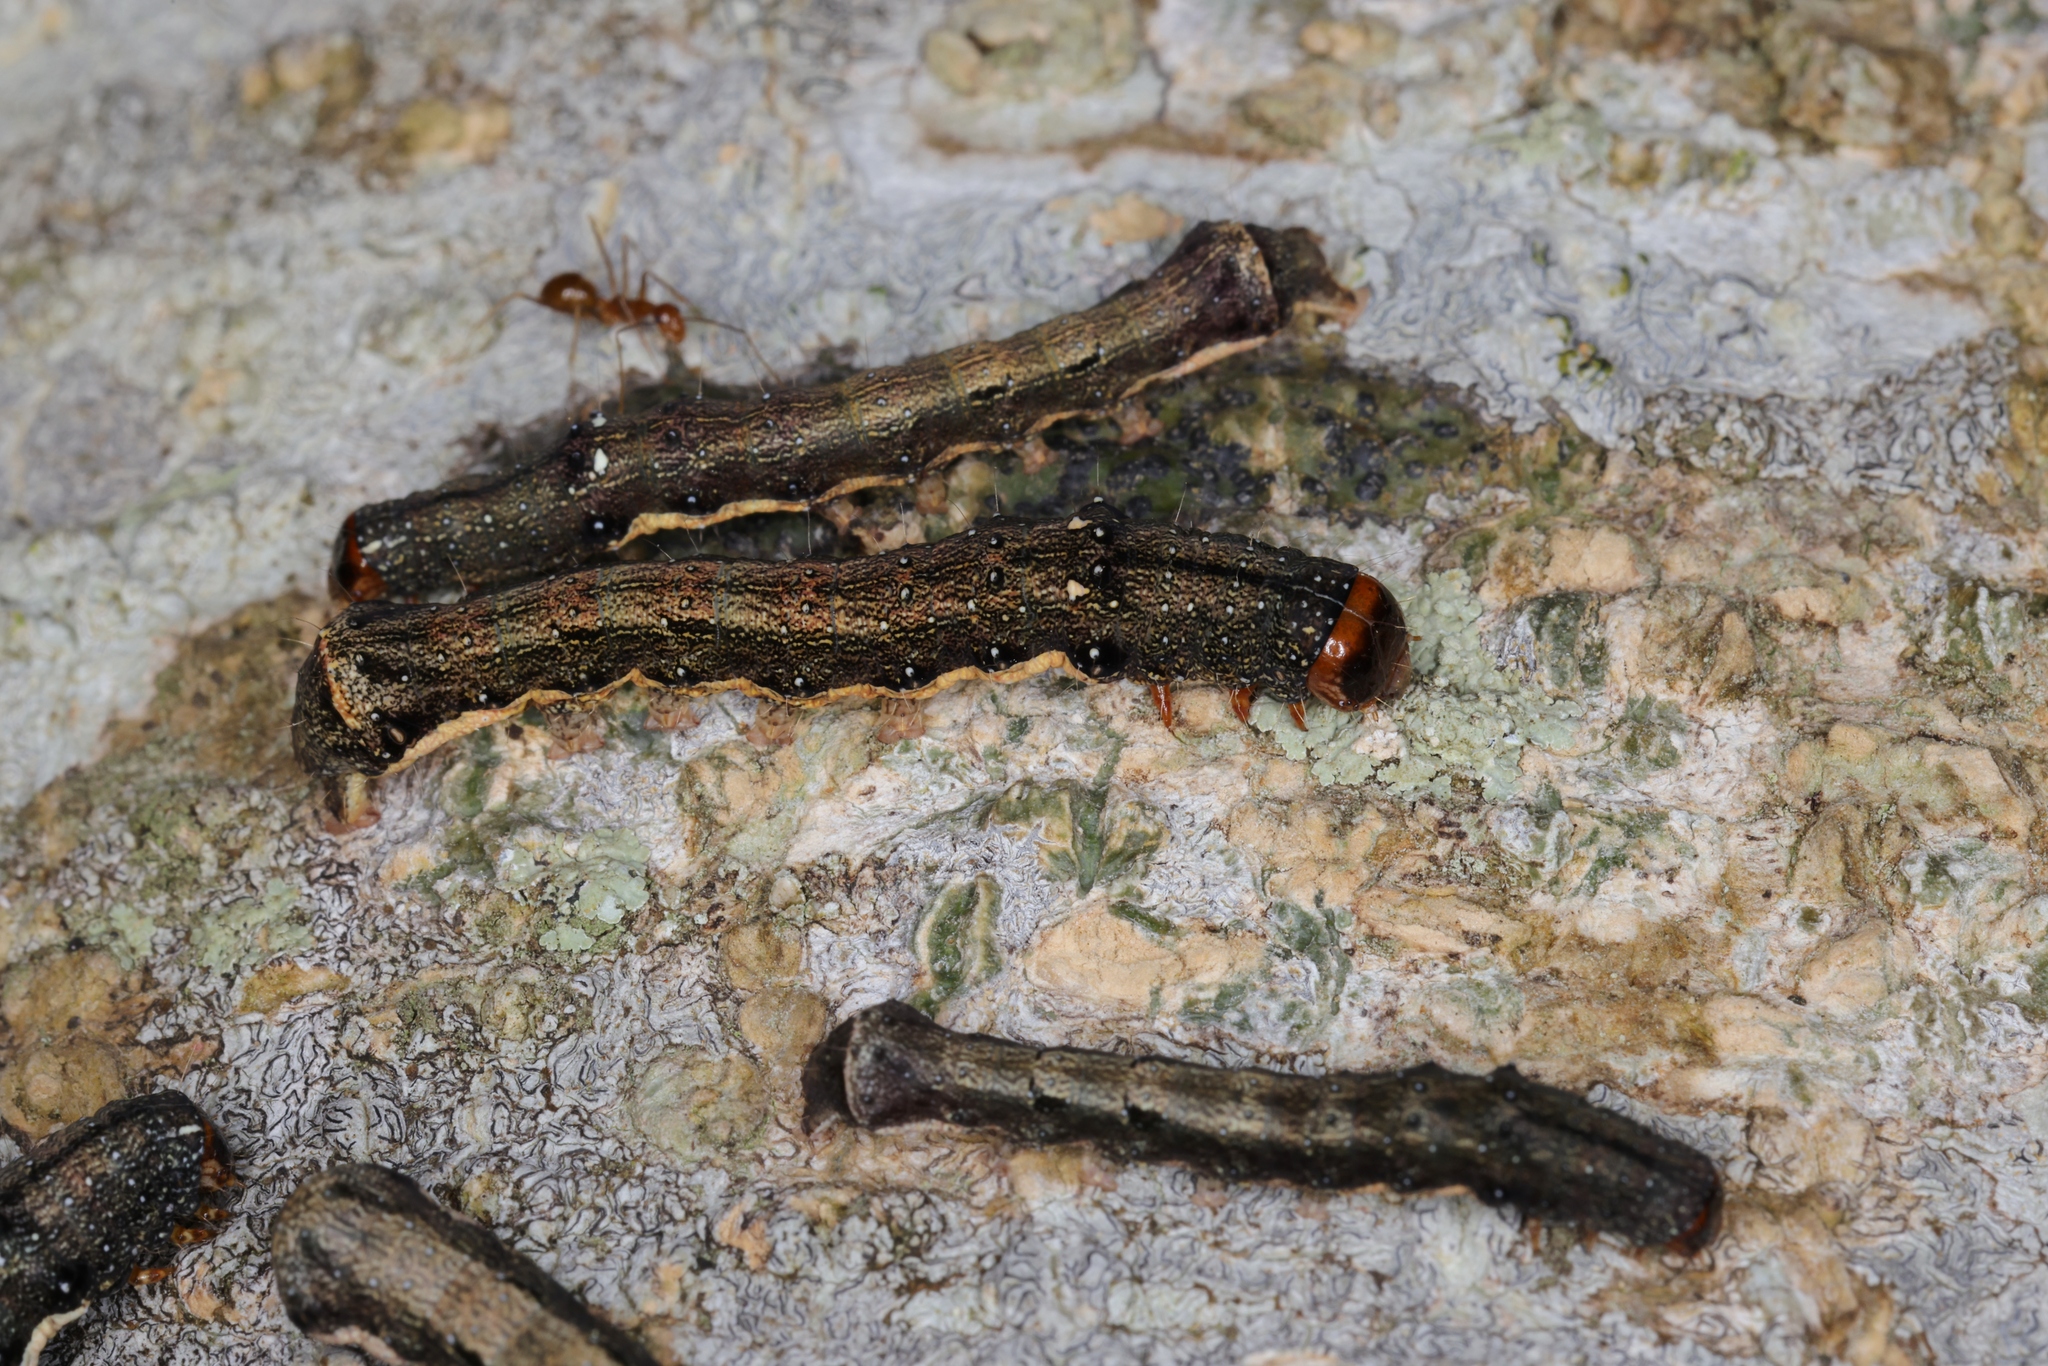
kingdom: Animalia
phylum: Arthropoda
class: Insecta
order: Lepidoptera
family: Noctuidae
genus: Tiracola
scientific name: Tiracola aureata
